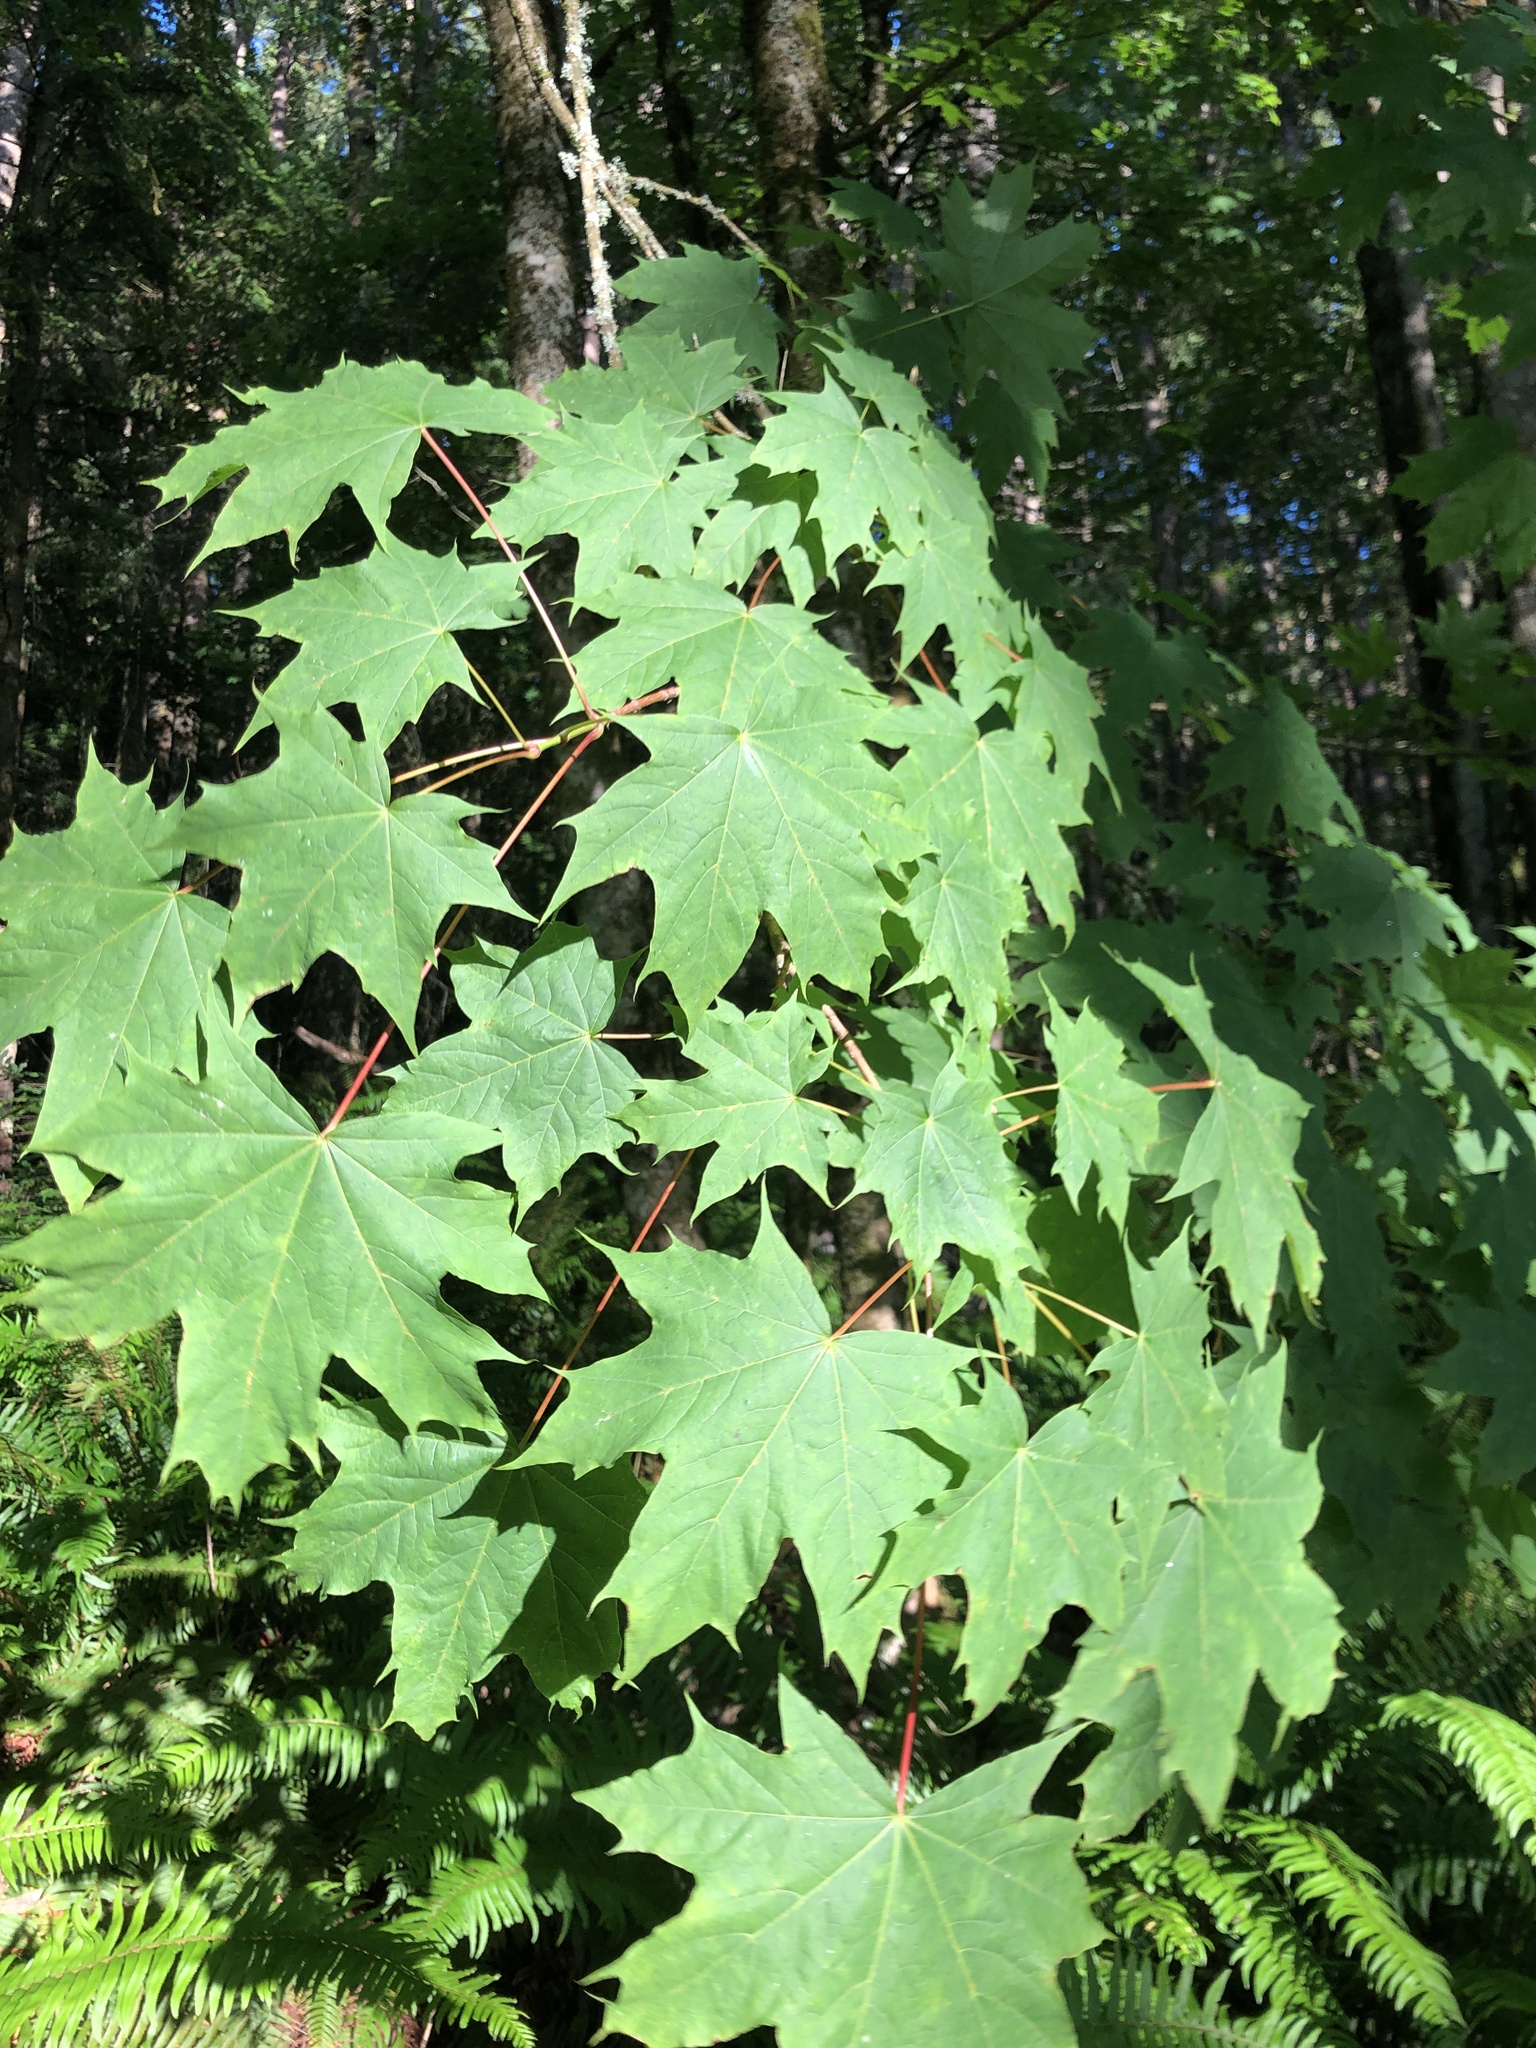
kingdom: Plantae
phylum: Tracheophyta
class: Magnoliopsida
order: Sapindales
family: Sapindaceae
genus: Acer
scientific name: Acer platanoides
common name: Norway maple
